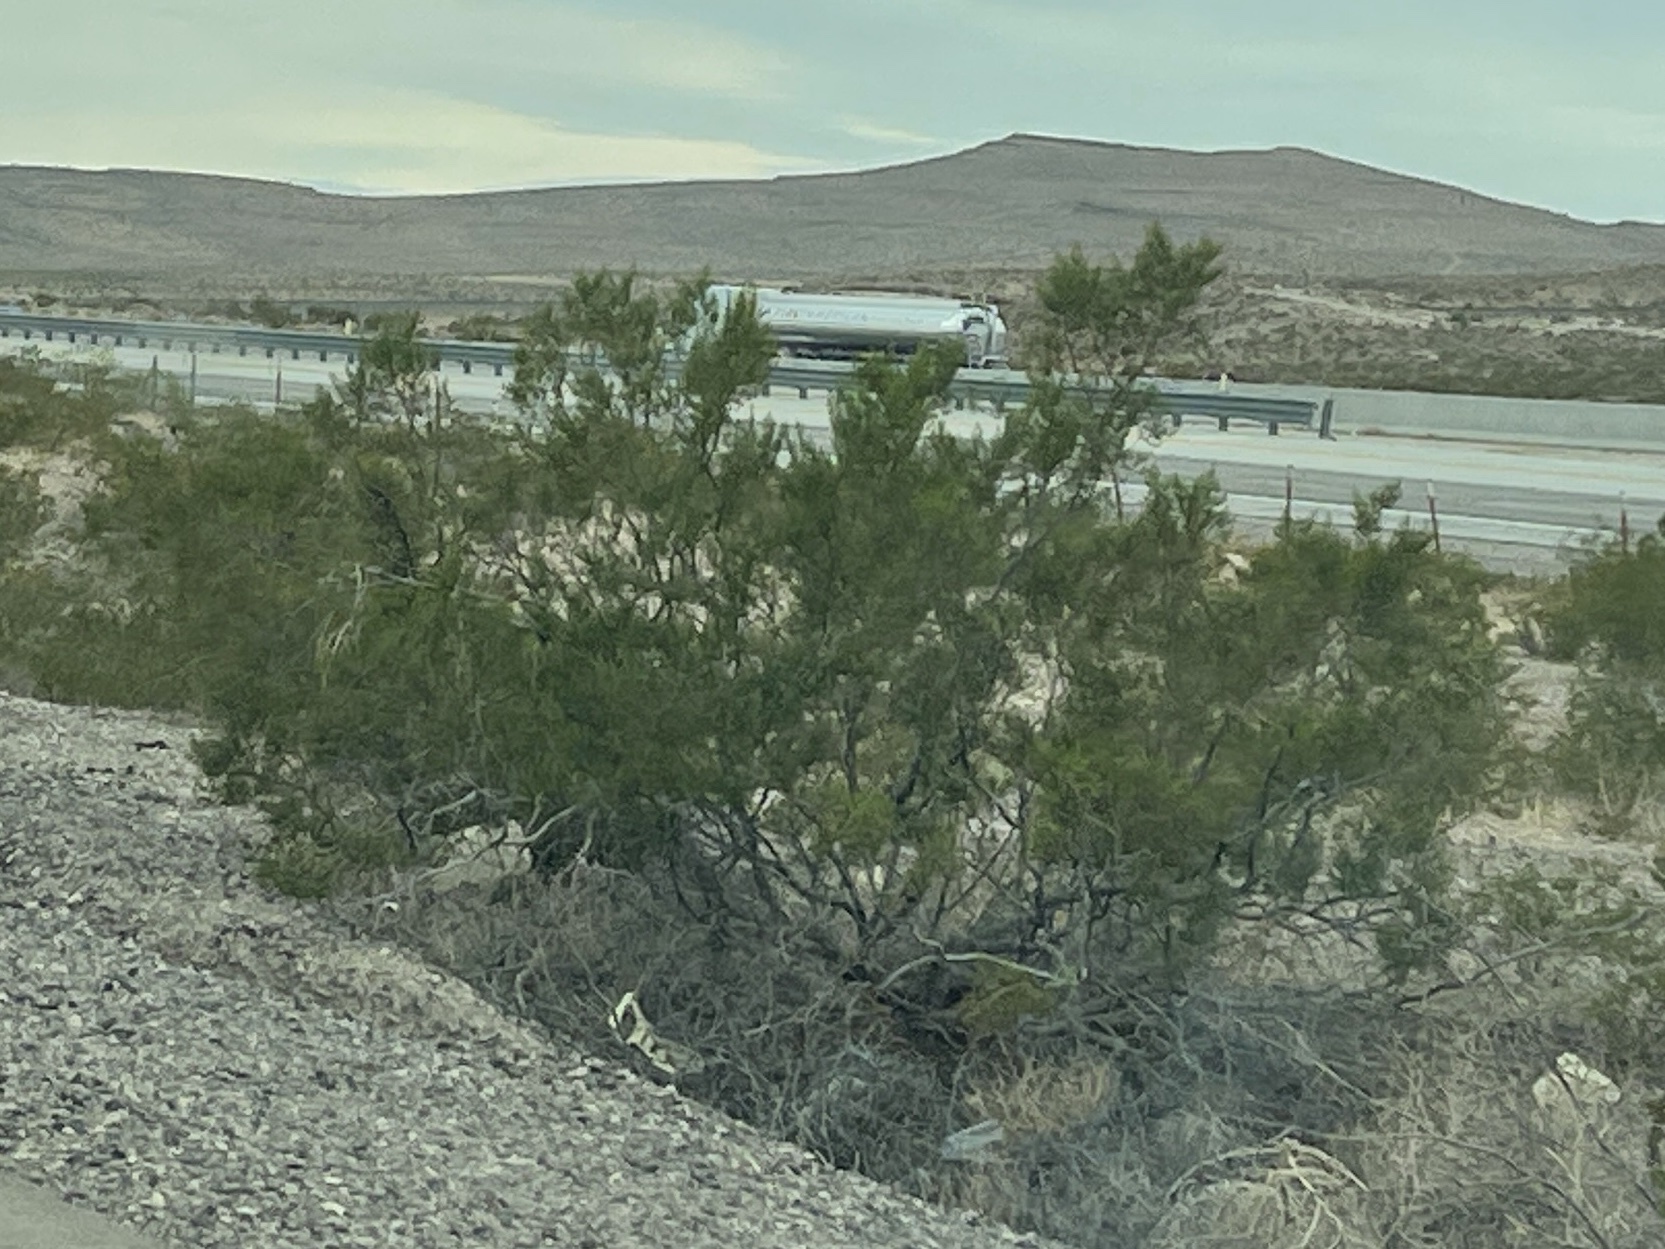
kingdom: Plantae
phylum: Tracheophyta
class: Magnoliopsida
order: Zygophyllales
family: Zygophyllaceae
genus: Larrea
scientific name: Larrea tridentata
